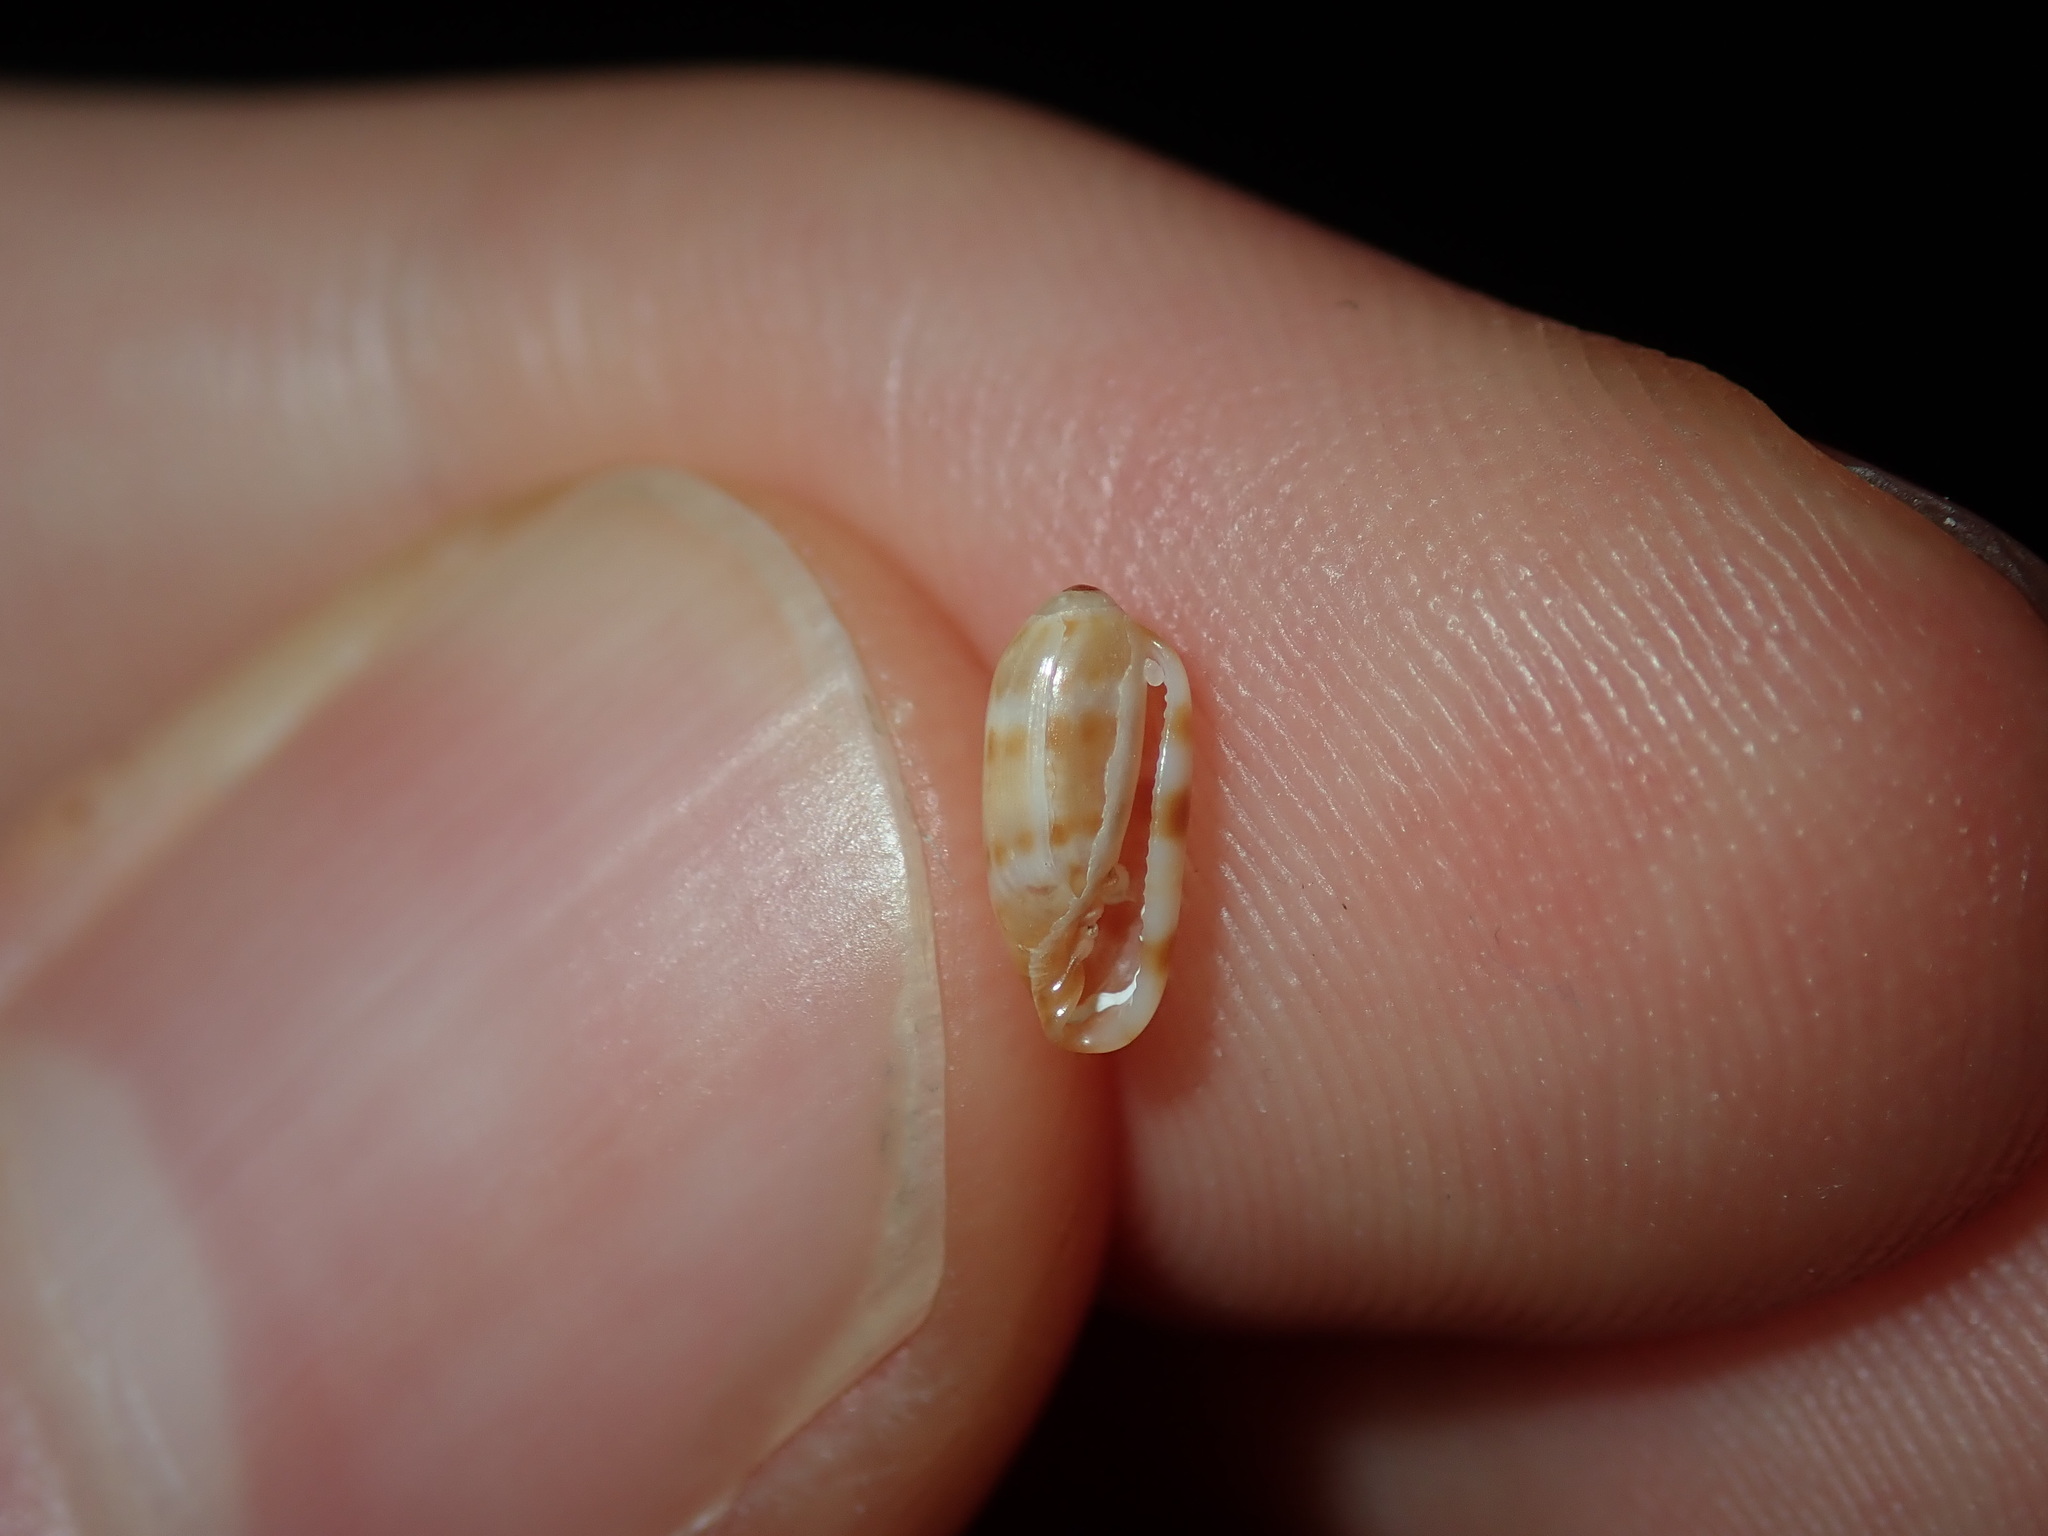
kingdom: Animalia
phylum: Mollusca
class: Gastropoda
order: Neogastropoda
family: Marginellidae
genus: Serrata
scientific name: Serrata mustelina
